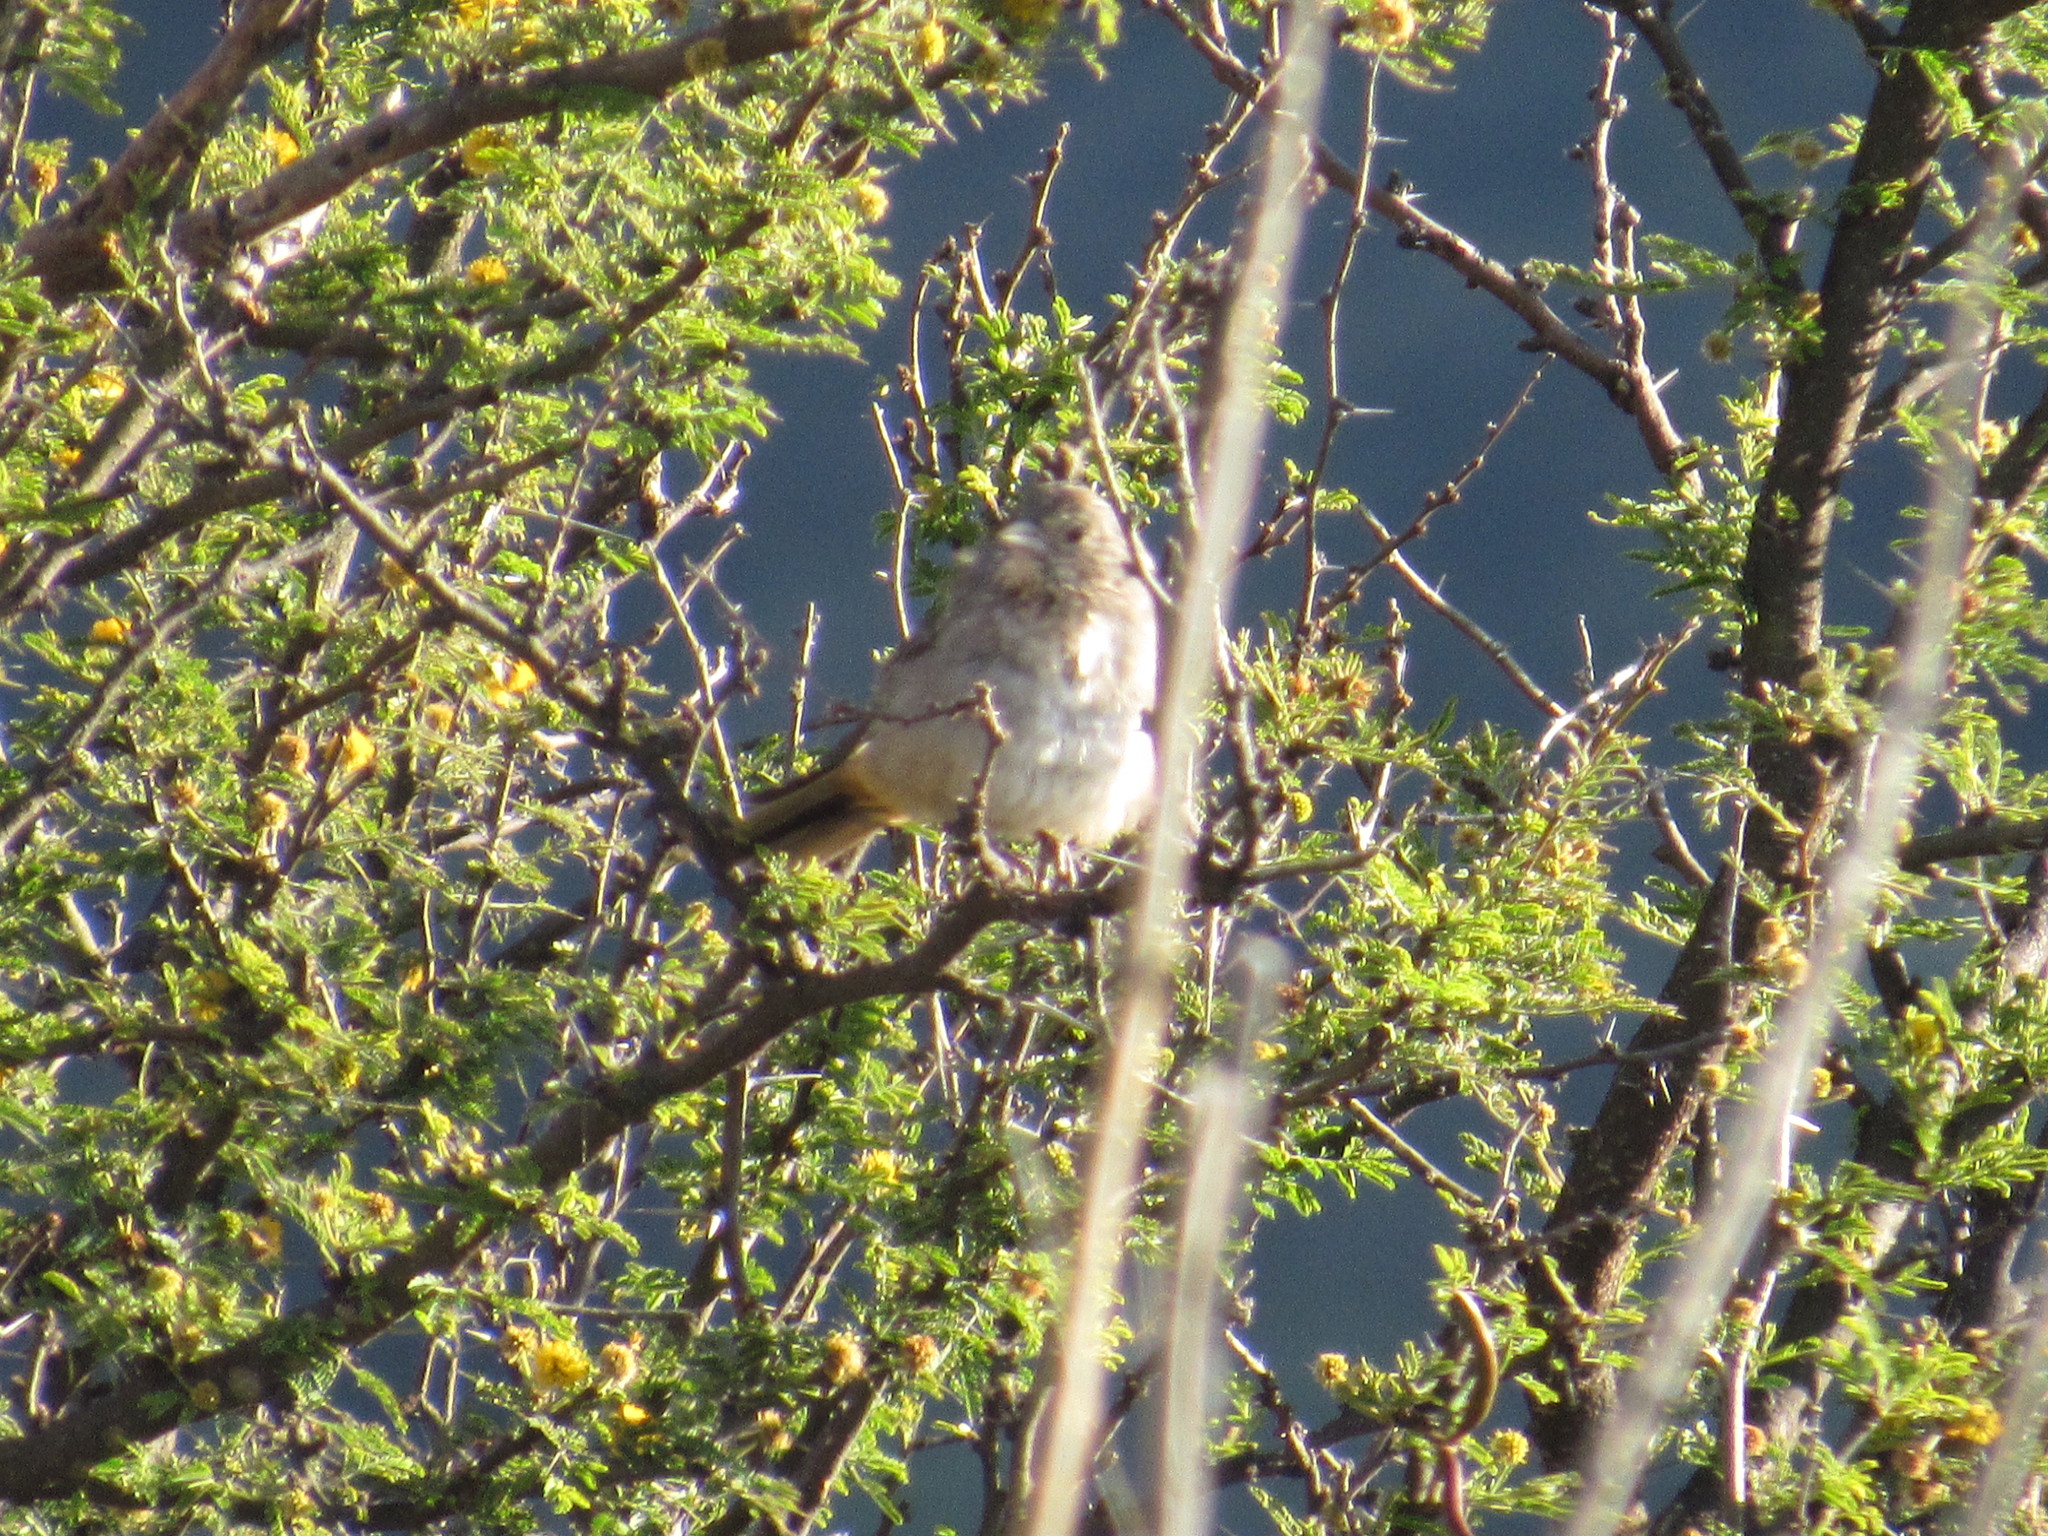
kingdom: Animalia
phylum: Chordata
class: Aves
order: Passeriformes
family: Passerellidae
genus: Melozone
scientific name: Melozone fusca
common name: Canyon towhee
